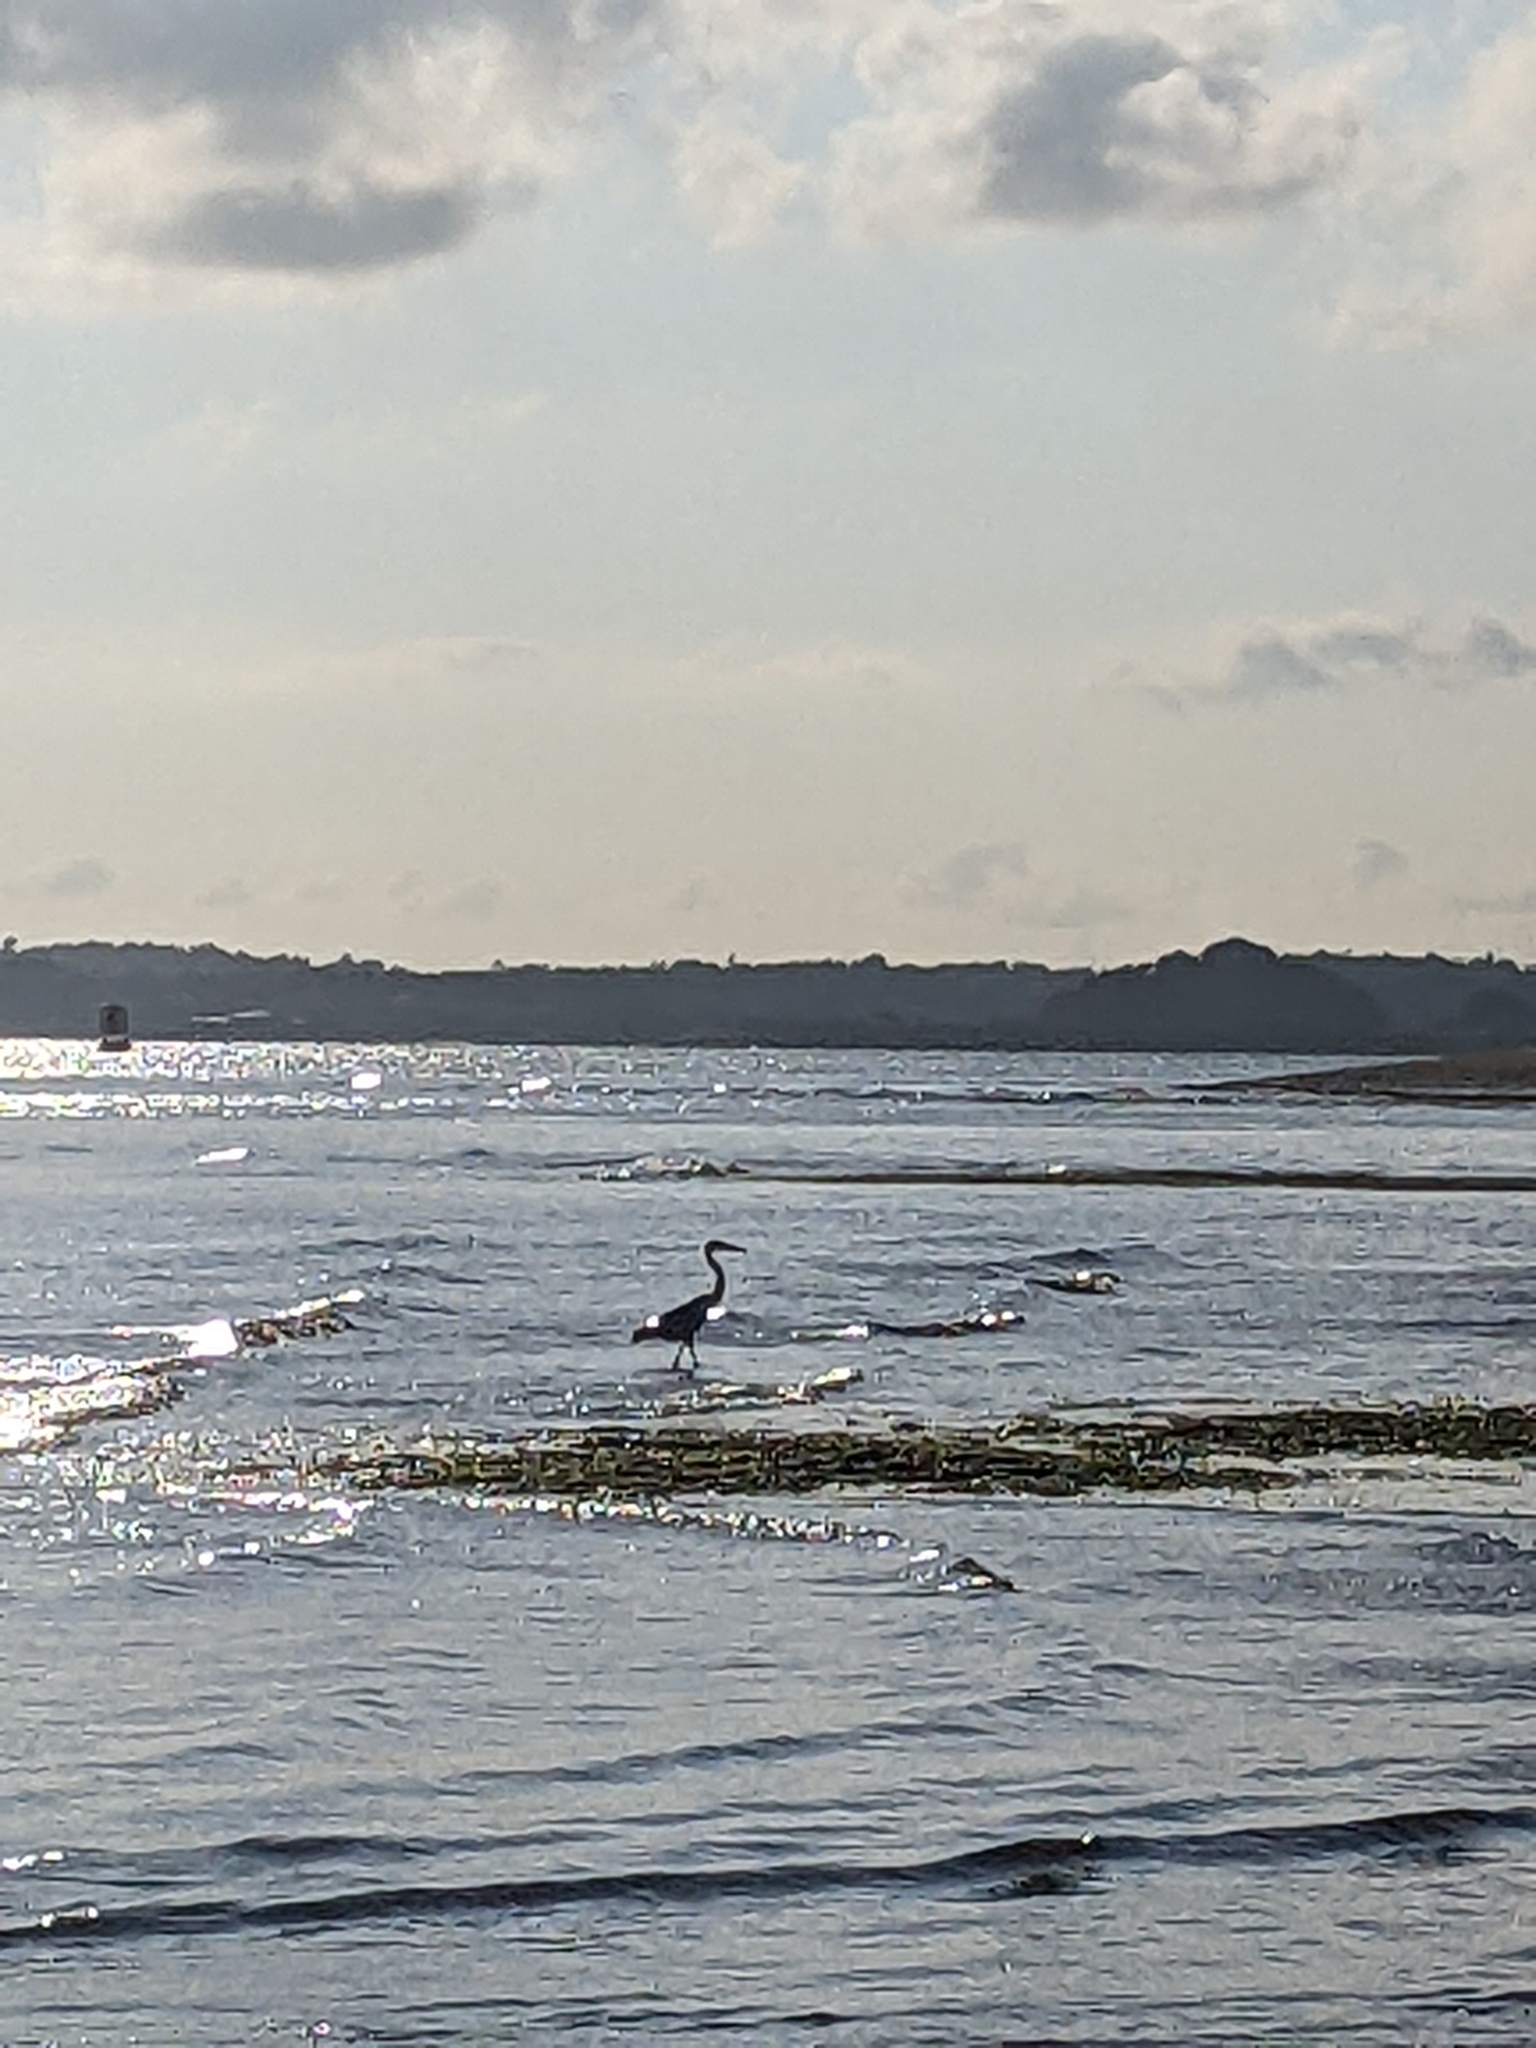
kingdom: Animalia
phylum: Chordata
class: Aves
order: Pelecaniformes
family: Ardeidae
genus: Ardea
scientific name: Ardea sumatrana
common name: Great-billed heron
